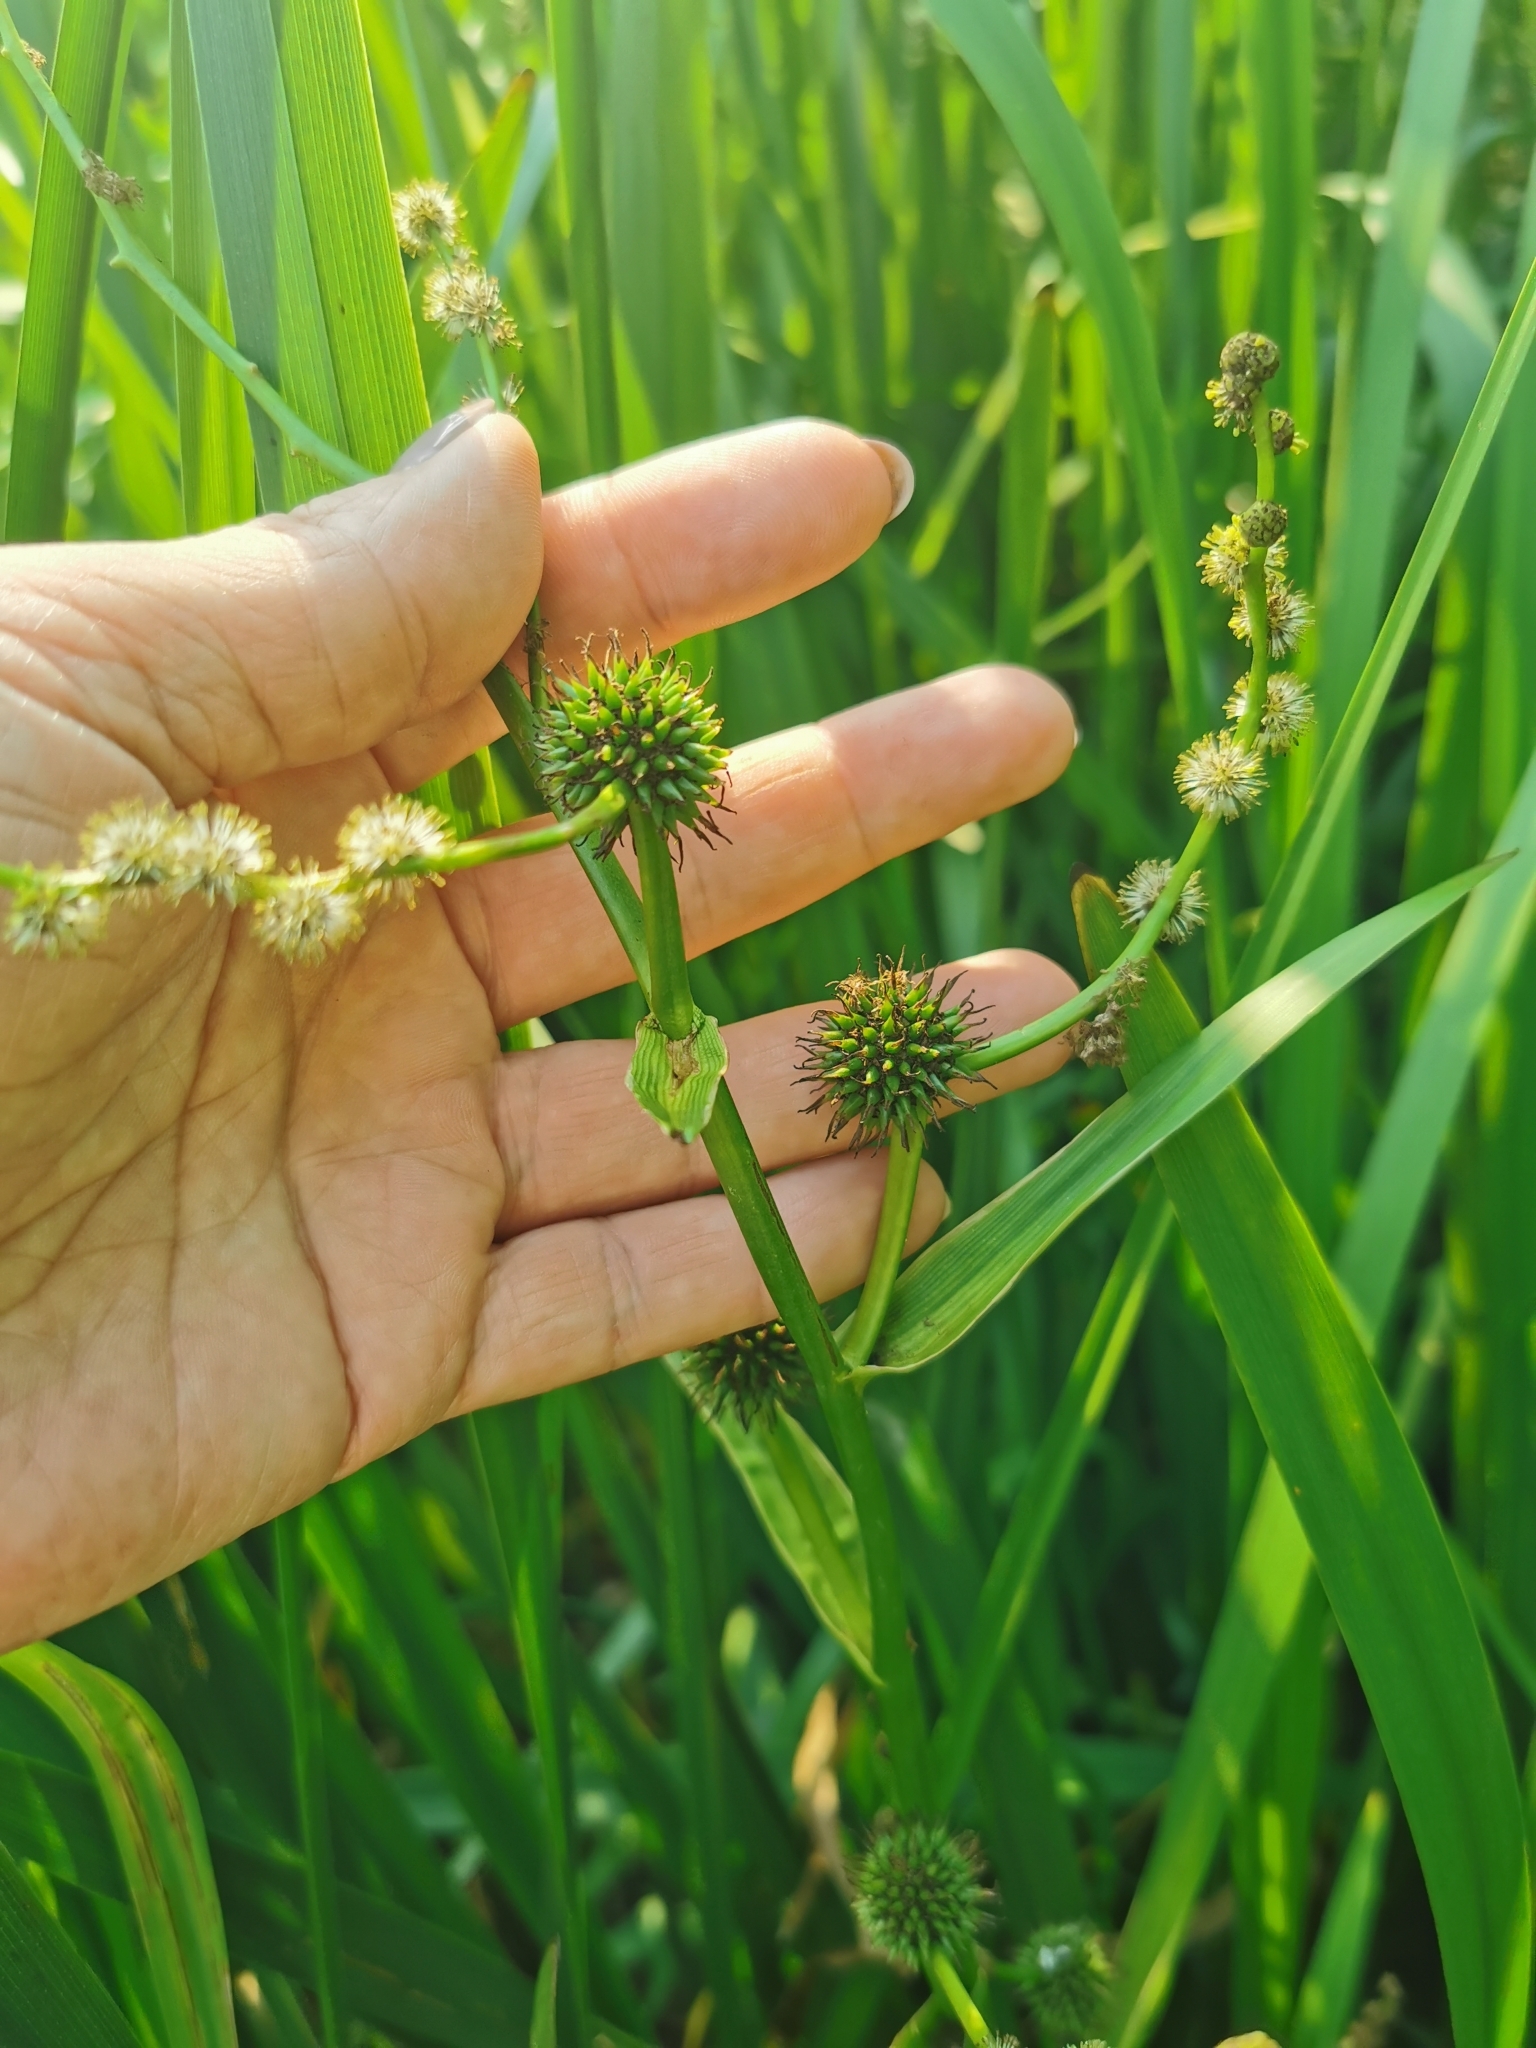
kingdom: Plantae
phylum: Tracheophyta
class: Liliopsida
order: Poales
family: Typhaceae
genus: Sparganium
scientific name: Sparganium erectum
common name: Branched bur-reed
